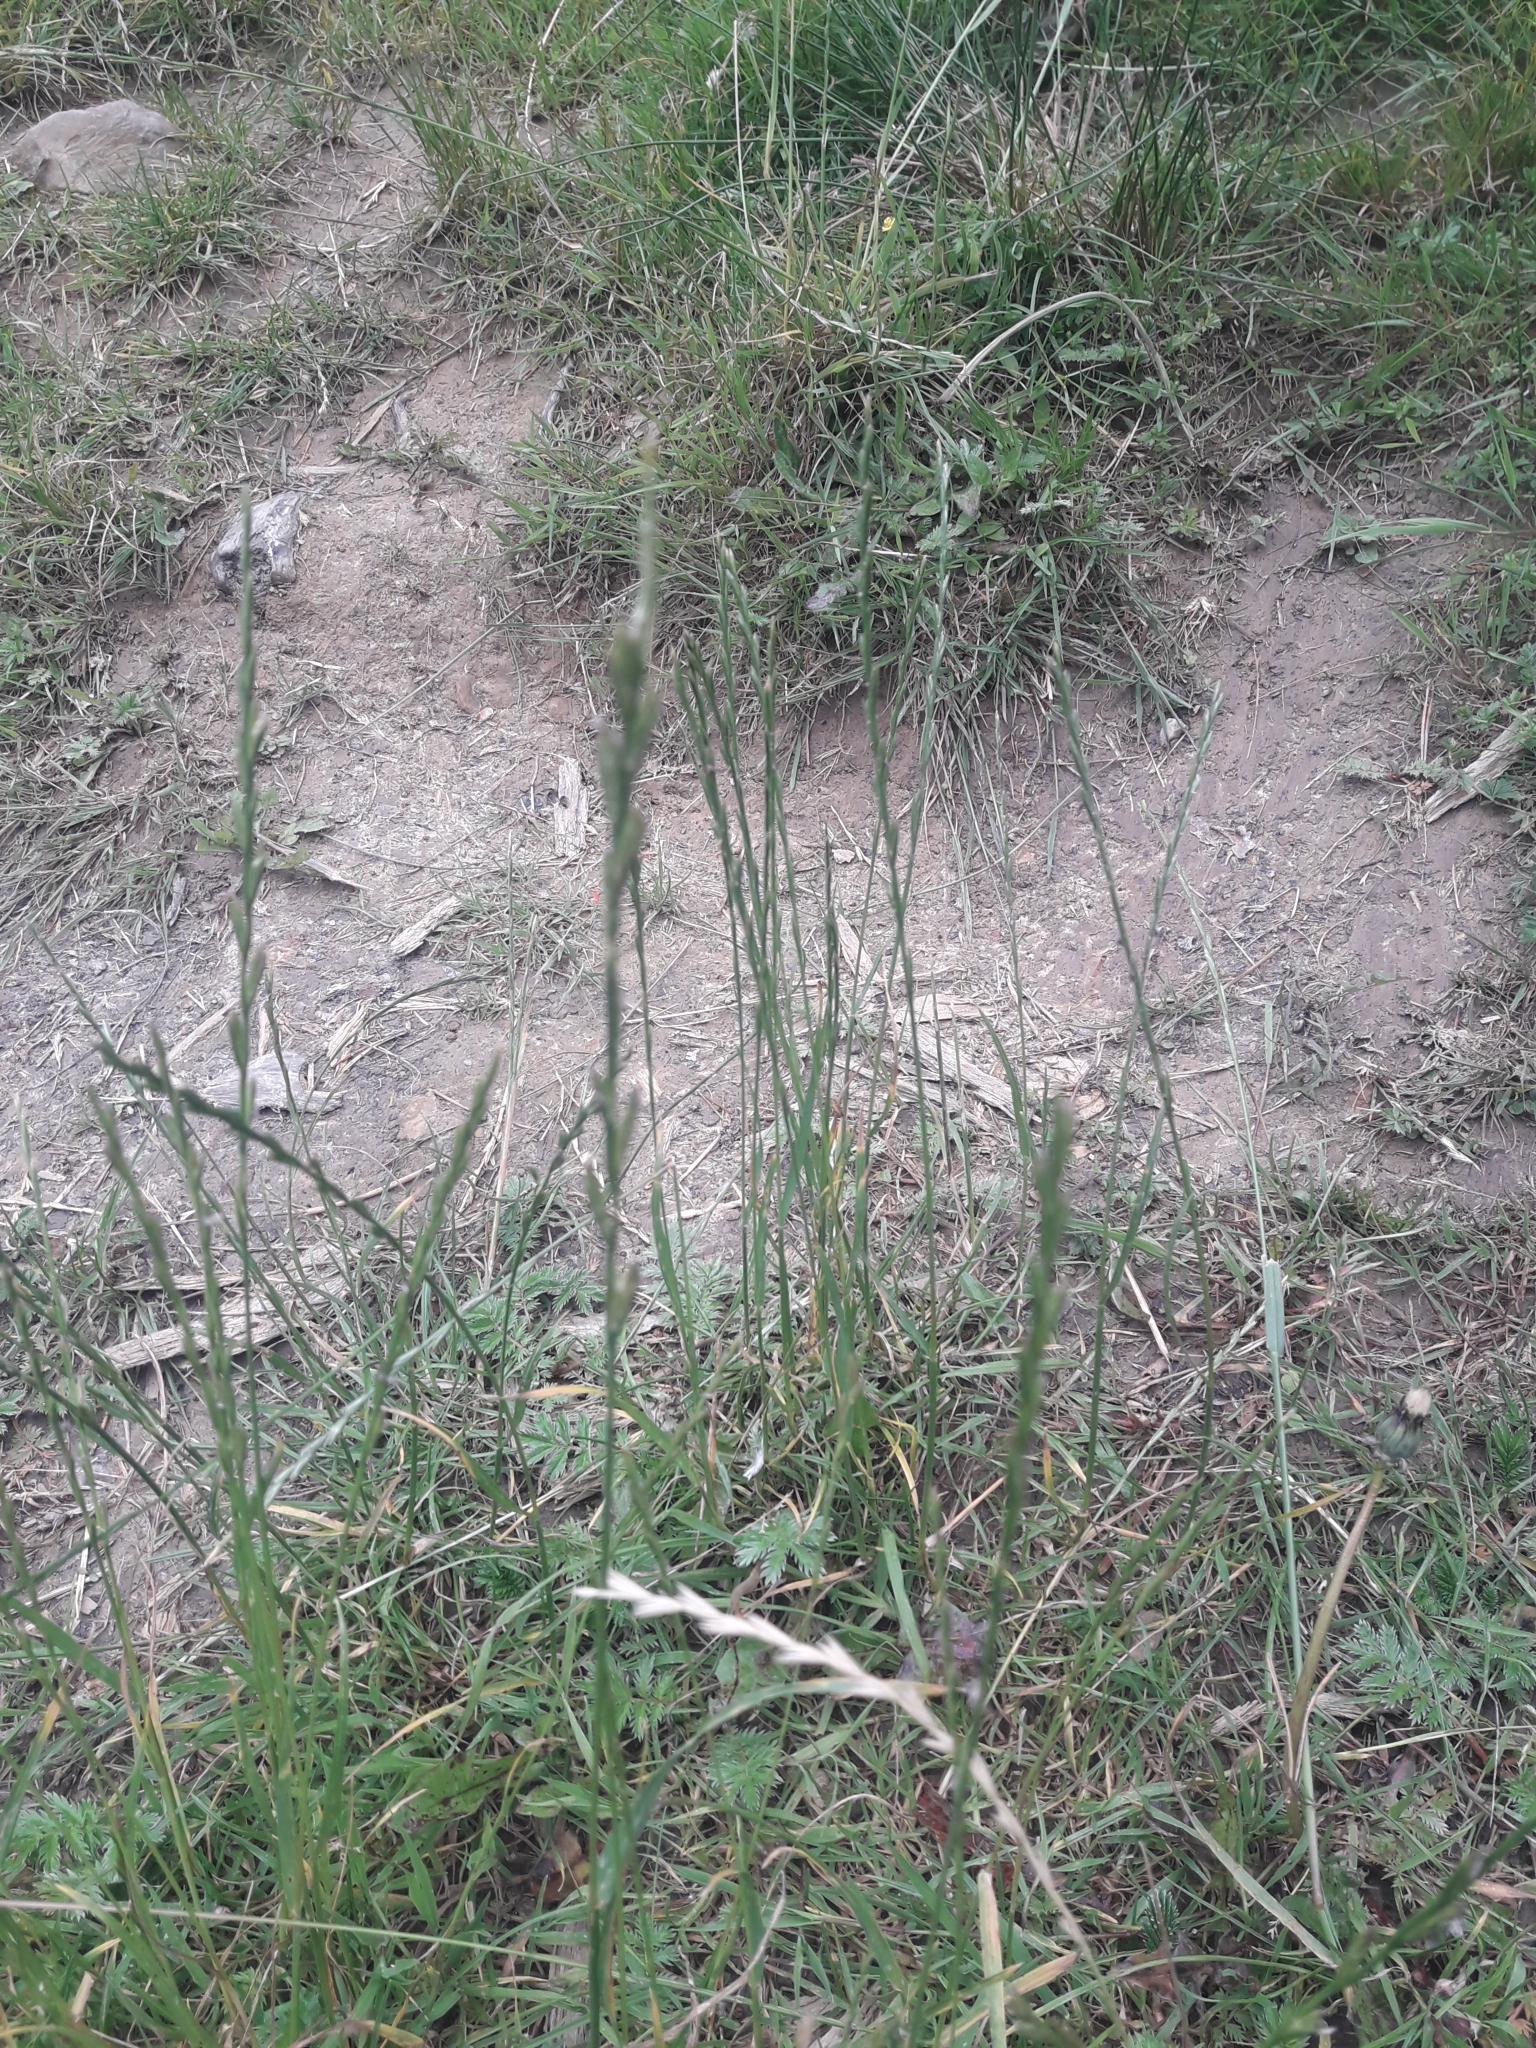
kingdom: Plantae
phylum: Tracheophyta
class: Liliopsida
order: Poales
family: Poaceae
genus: Lolium
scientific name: Lolium perenne
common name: Perennial ryegrass
